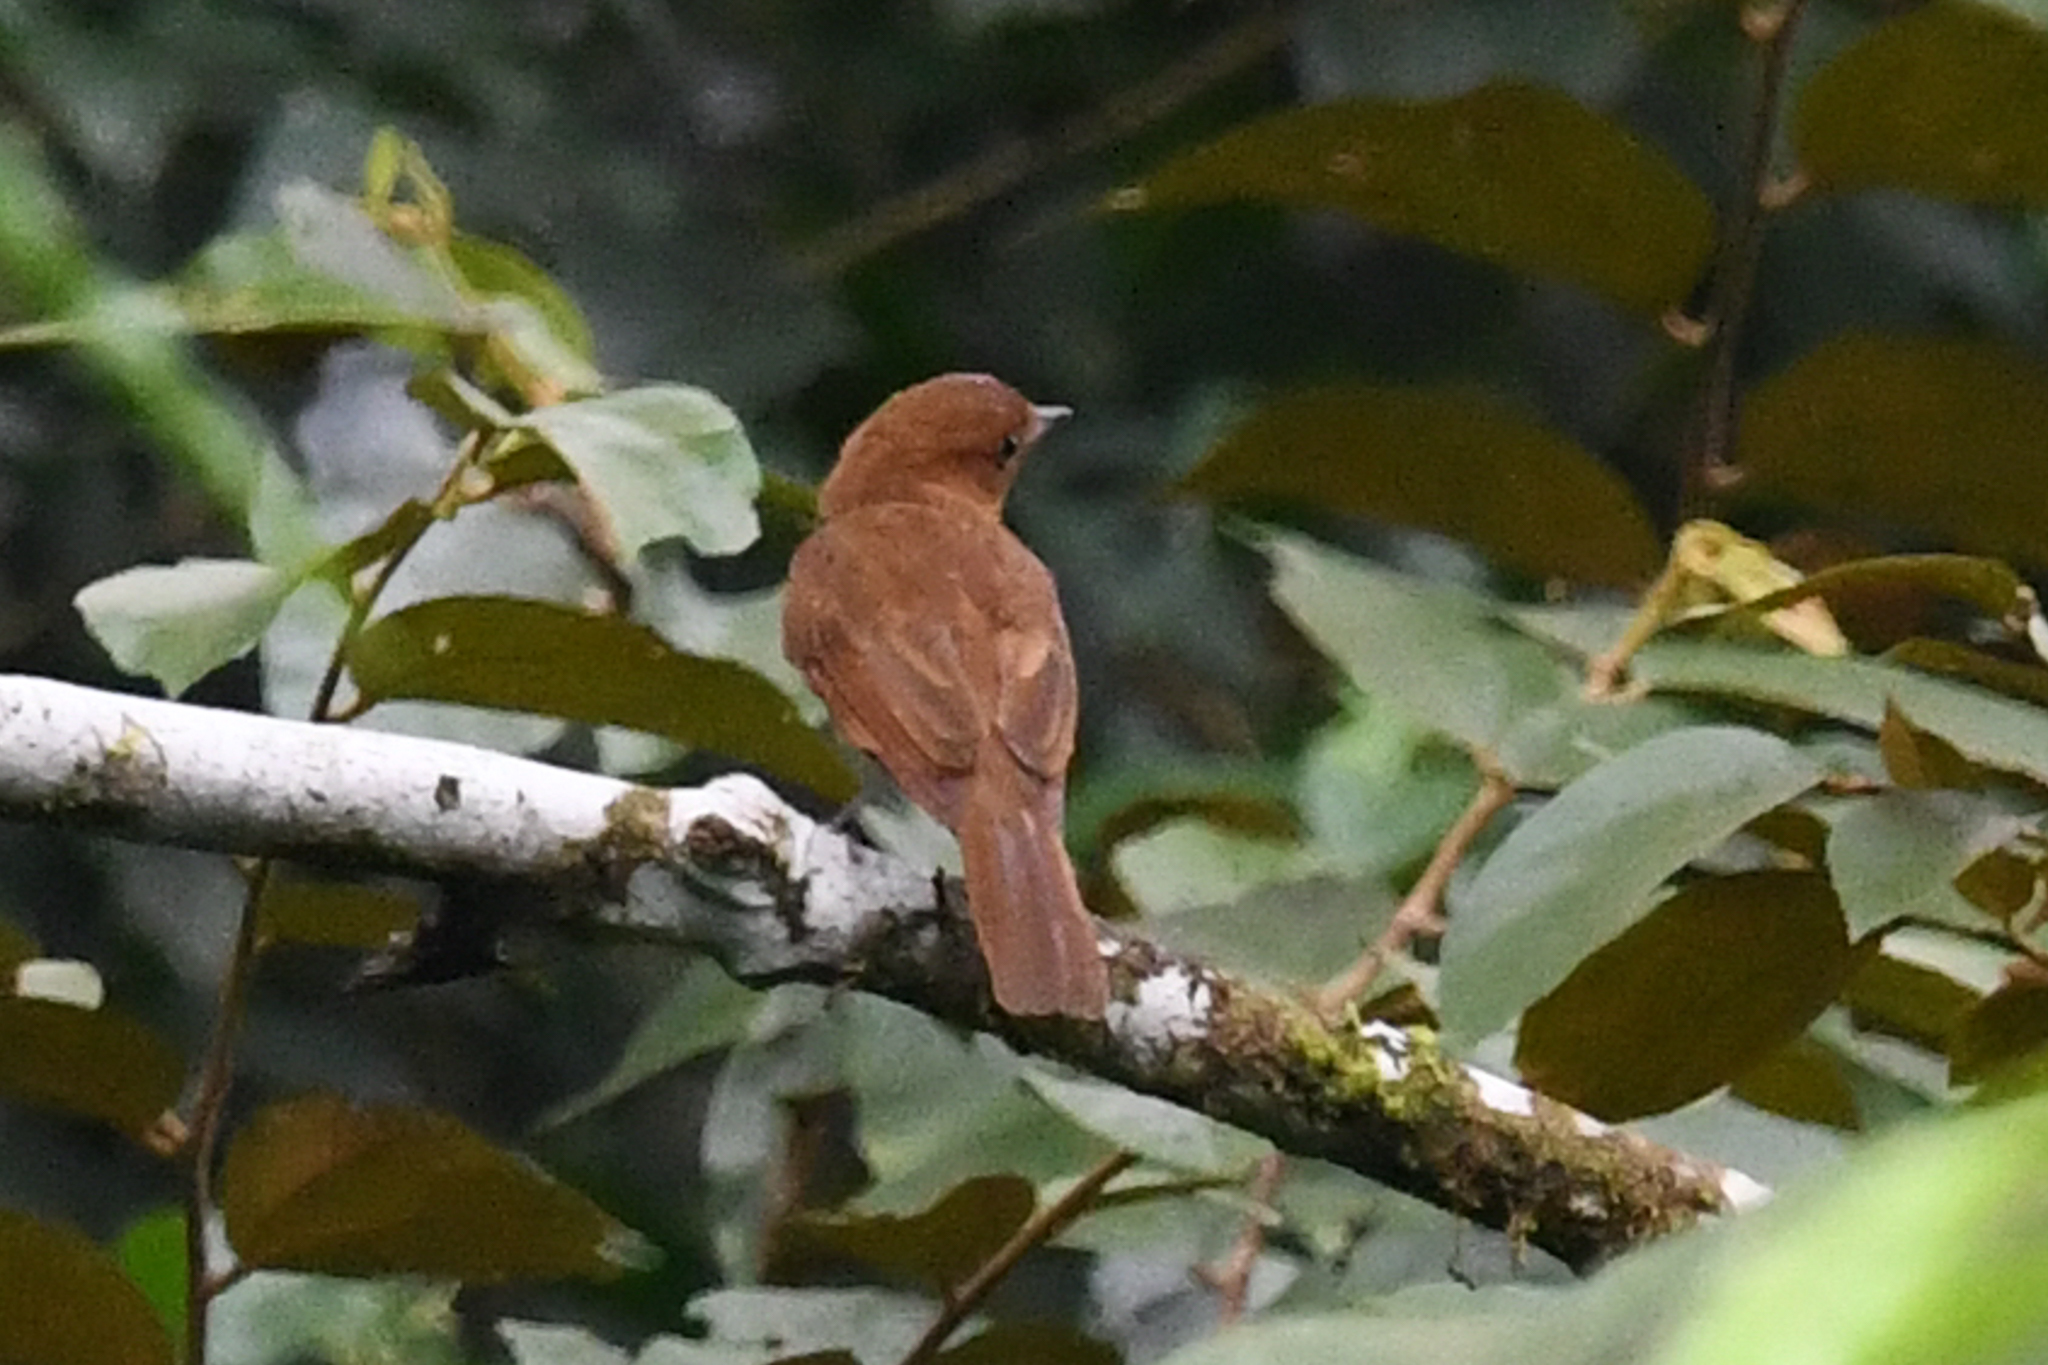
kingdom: Animalia
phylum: Chordata
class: Aves
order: Passeriformes
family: Tyrannidae
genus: Rhytipterna
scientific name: Rhytipterna holerythra
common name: Rufous mourner
